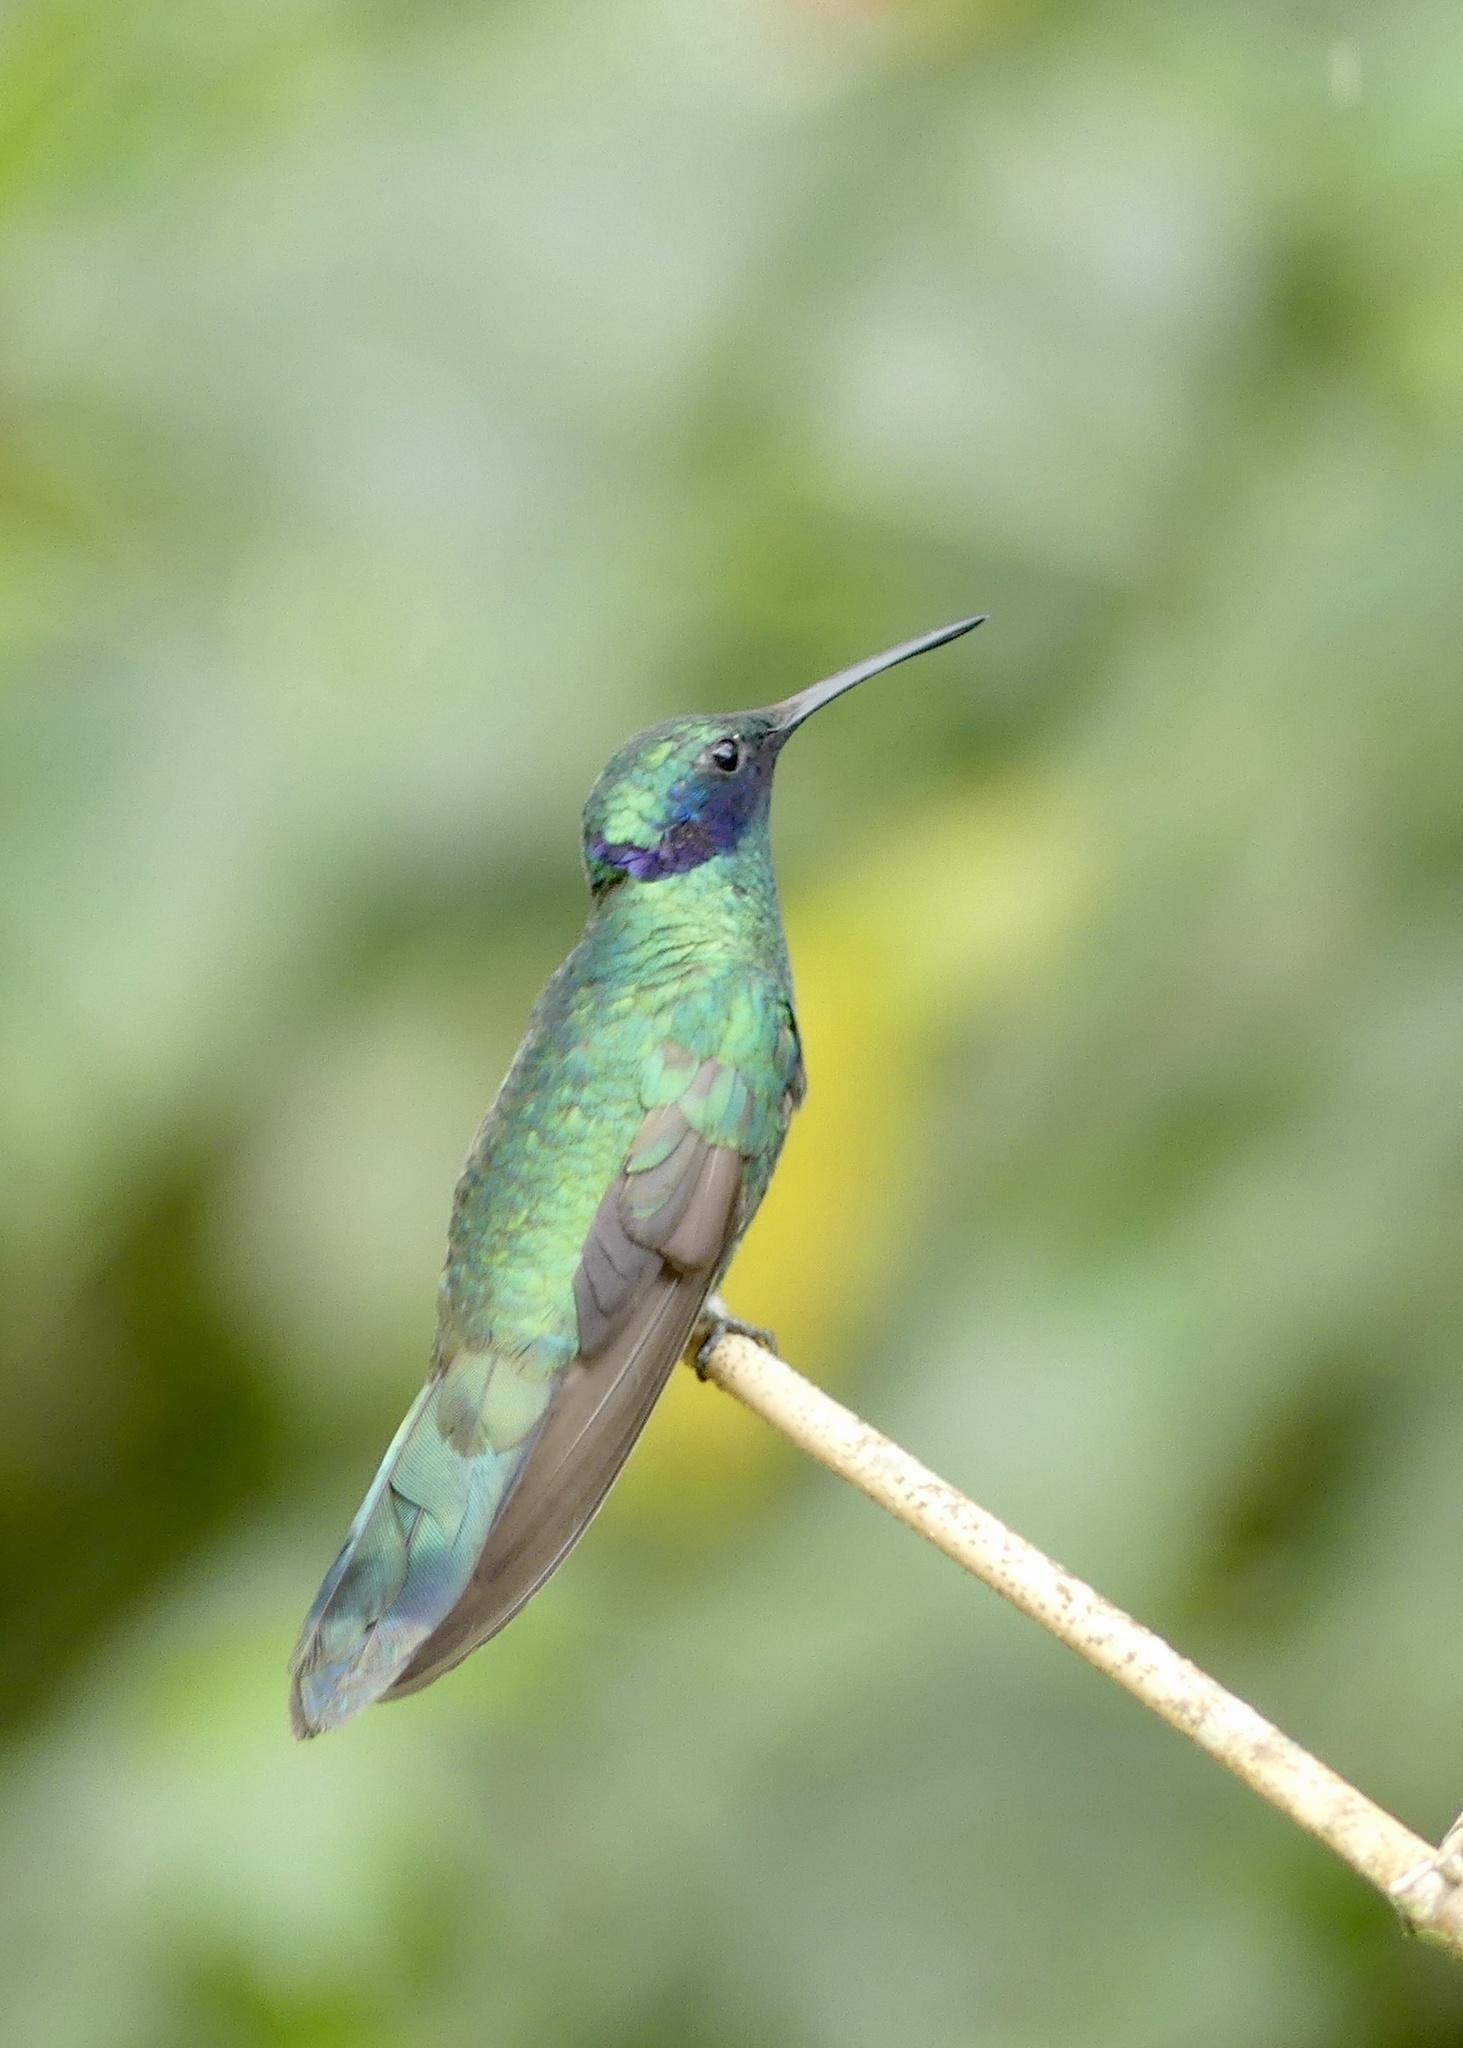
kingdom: Animalia
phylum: Chordata
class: Aves
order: Apodiformes
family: Trochilidae
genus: Colibri
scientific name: Colibri coruscans
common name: Sparkling violetear
